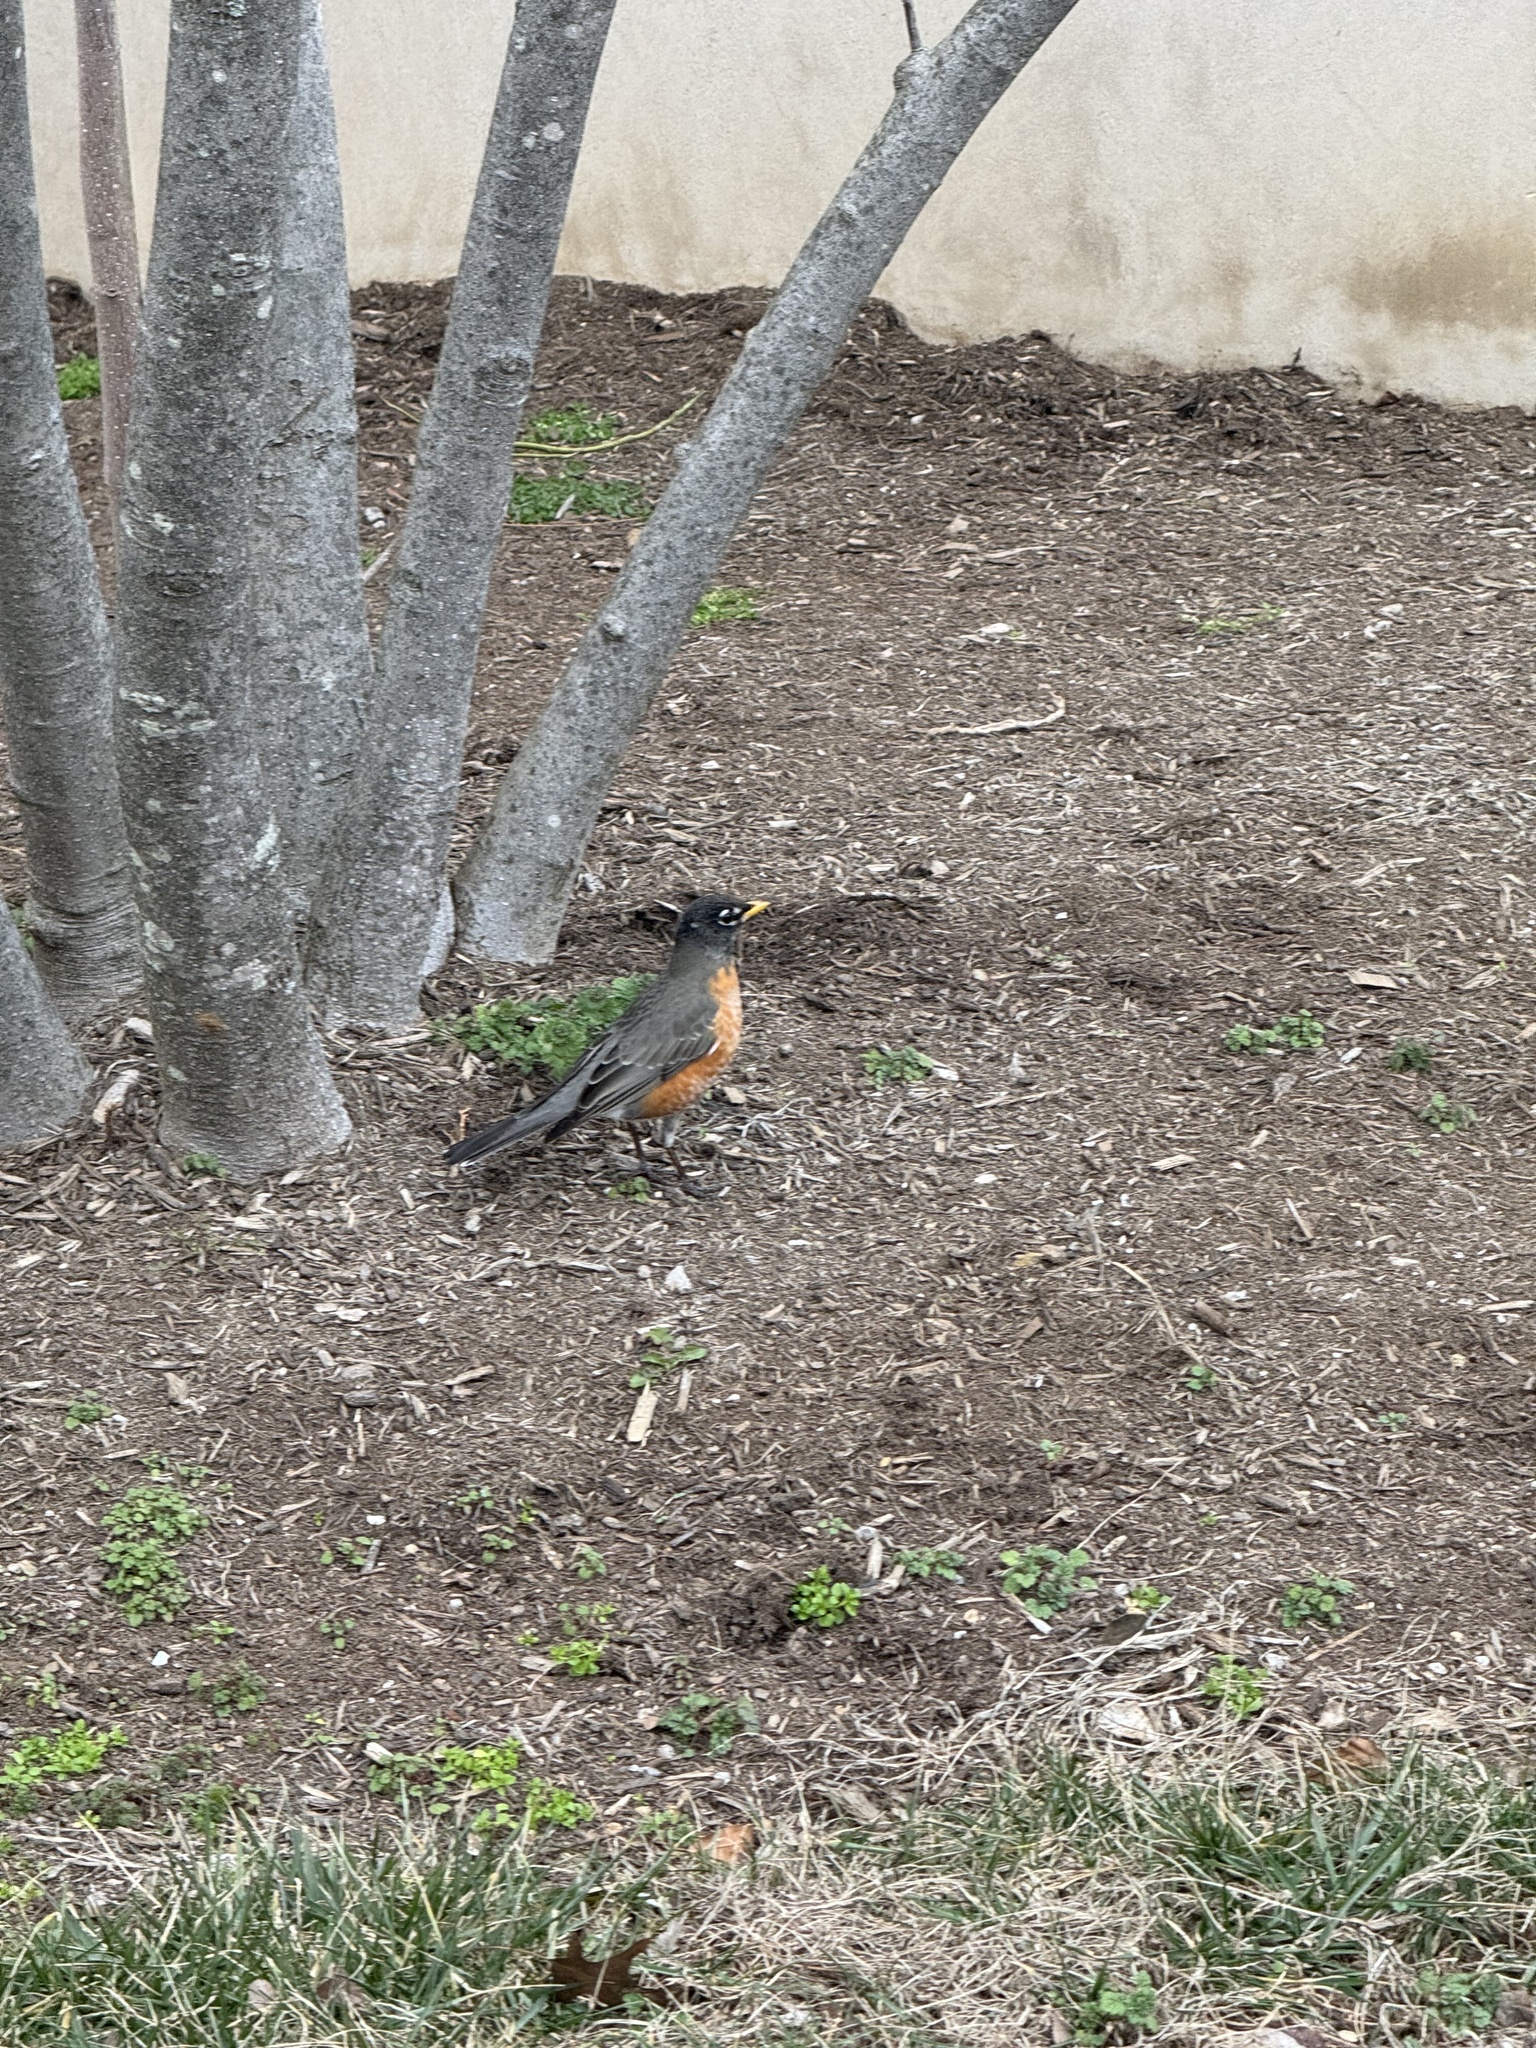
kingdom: Animalia
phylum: Chordata
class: Aves
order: Passeriformes
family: Turdidae
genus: Turdus
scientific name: Turdus migratorius
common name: American robin
